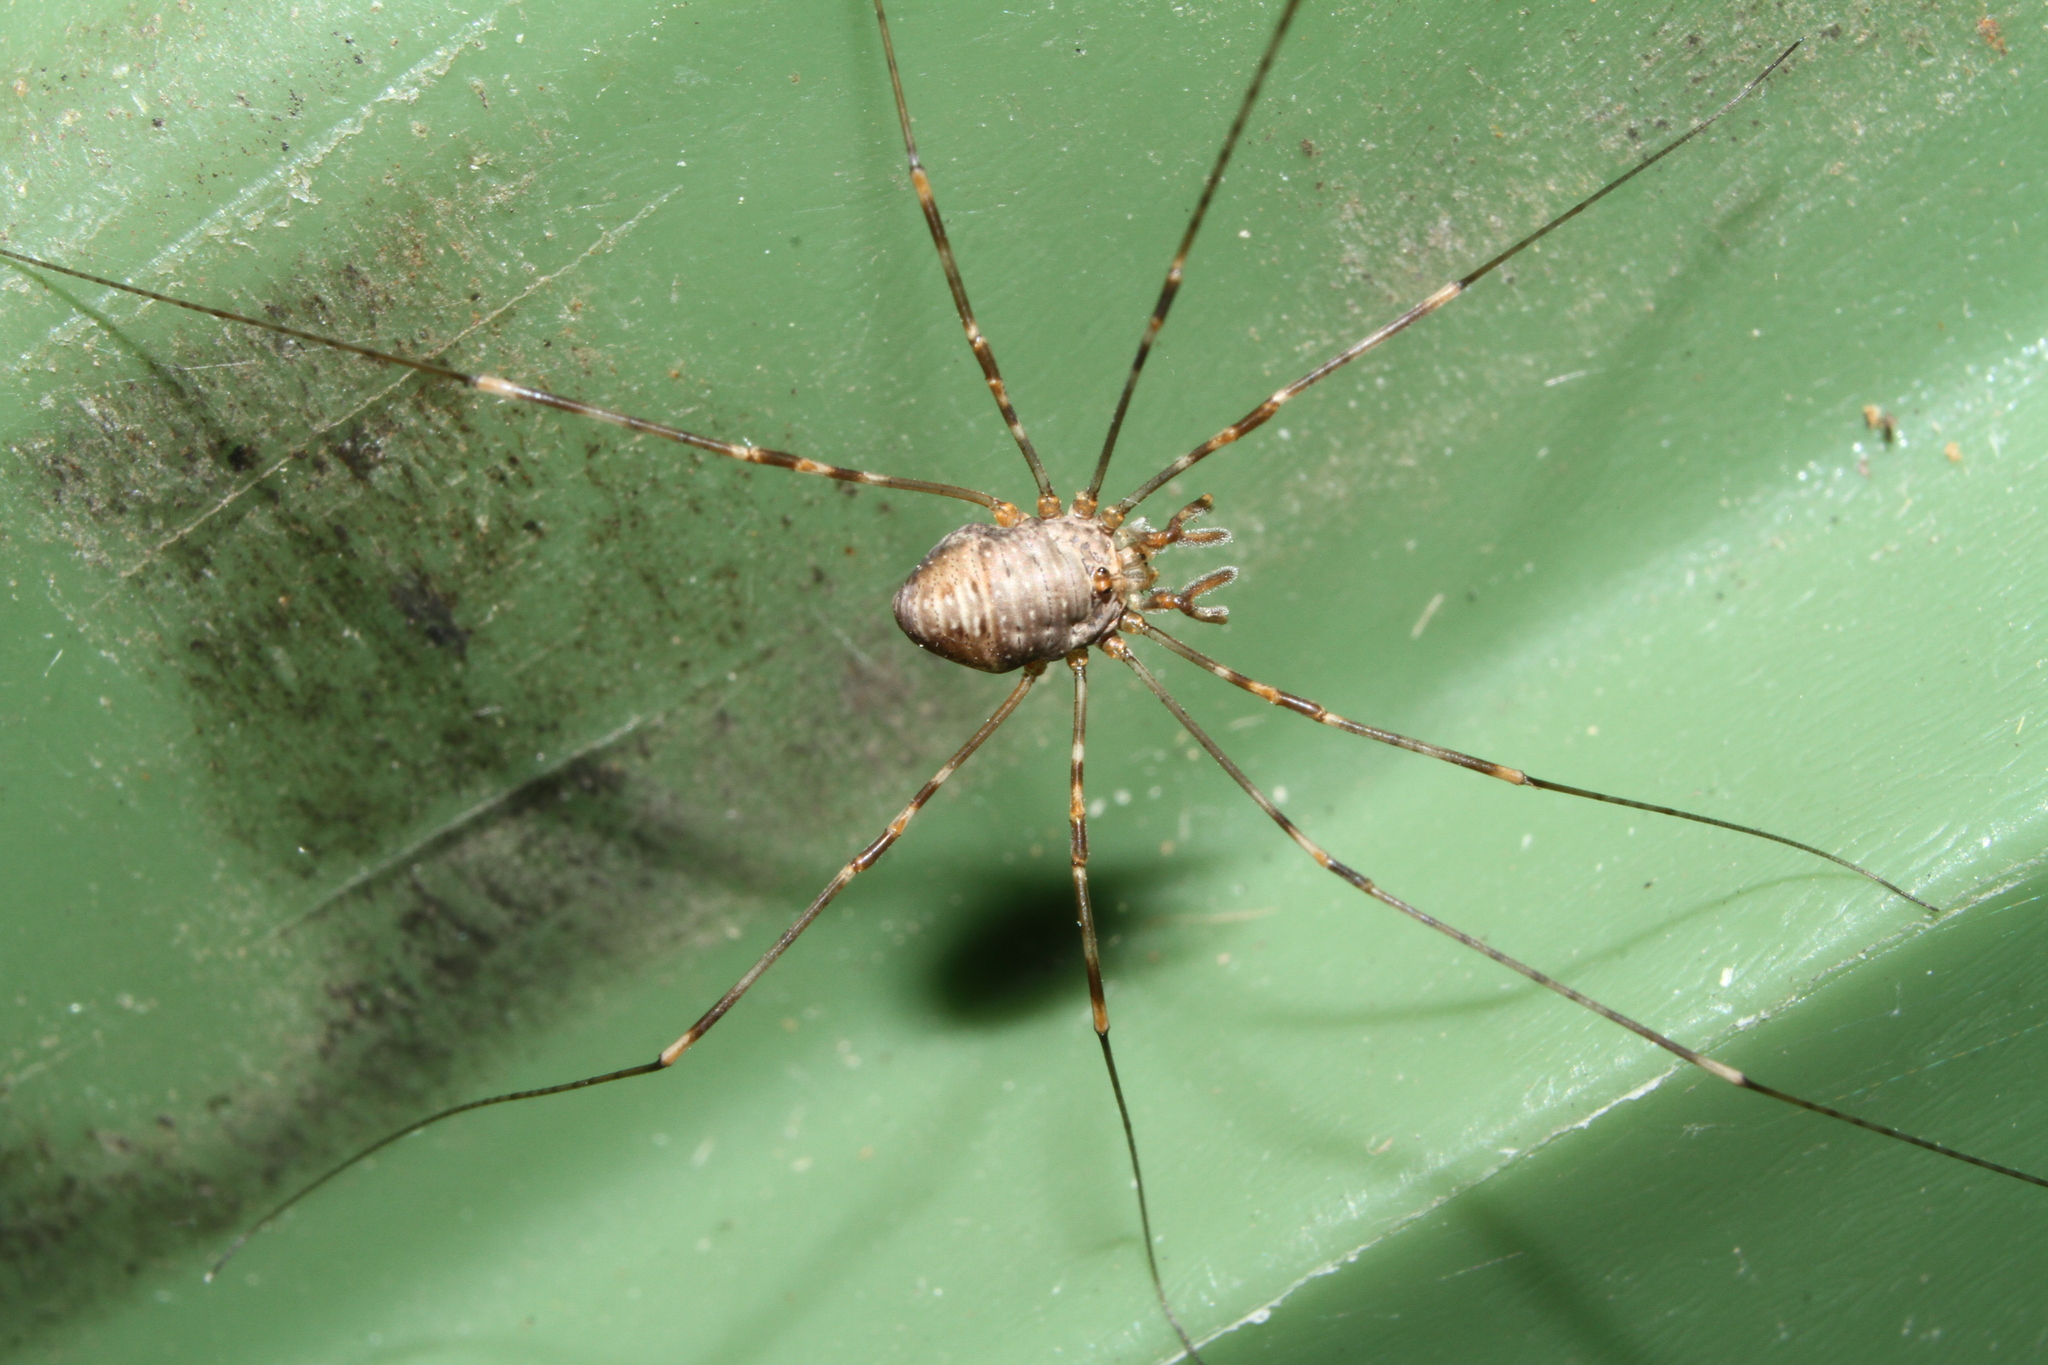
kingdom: Animalia
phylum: Arthropoda
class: Arachnida
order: Opiliones
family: Phalangiidae
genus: Dicranopalpus
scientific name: Dicranopalpus
